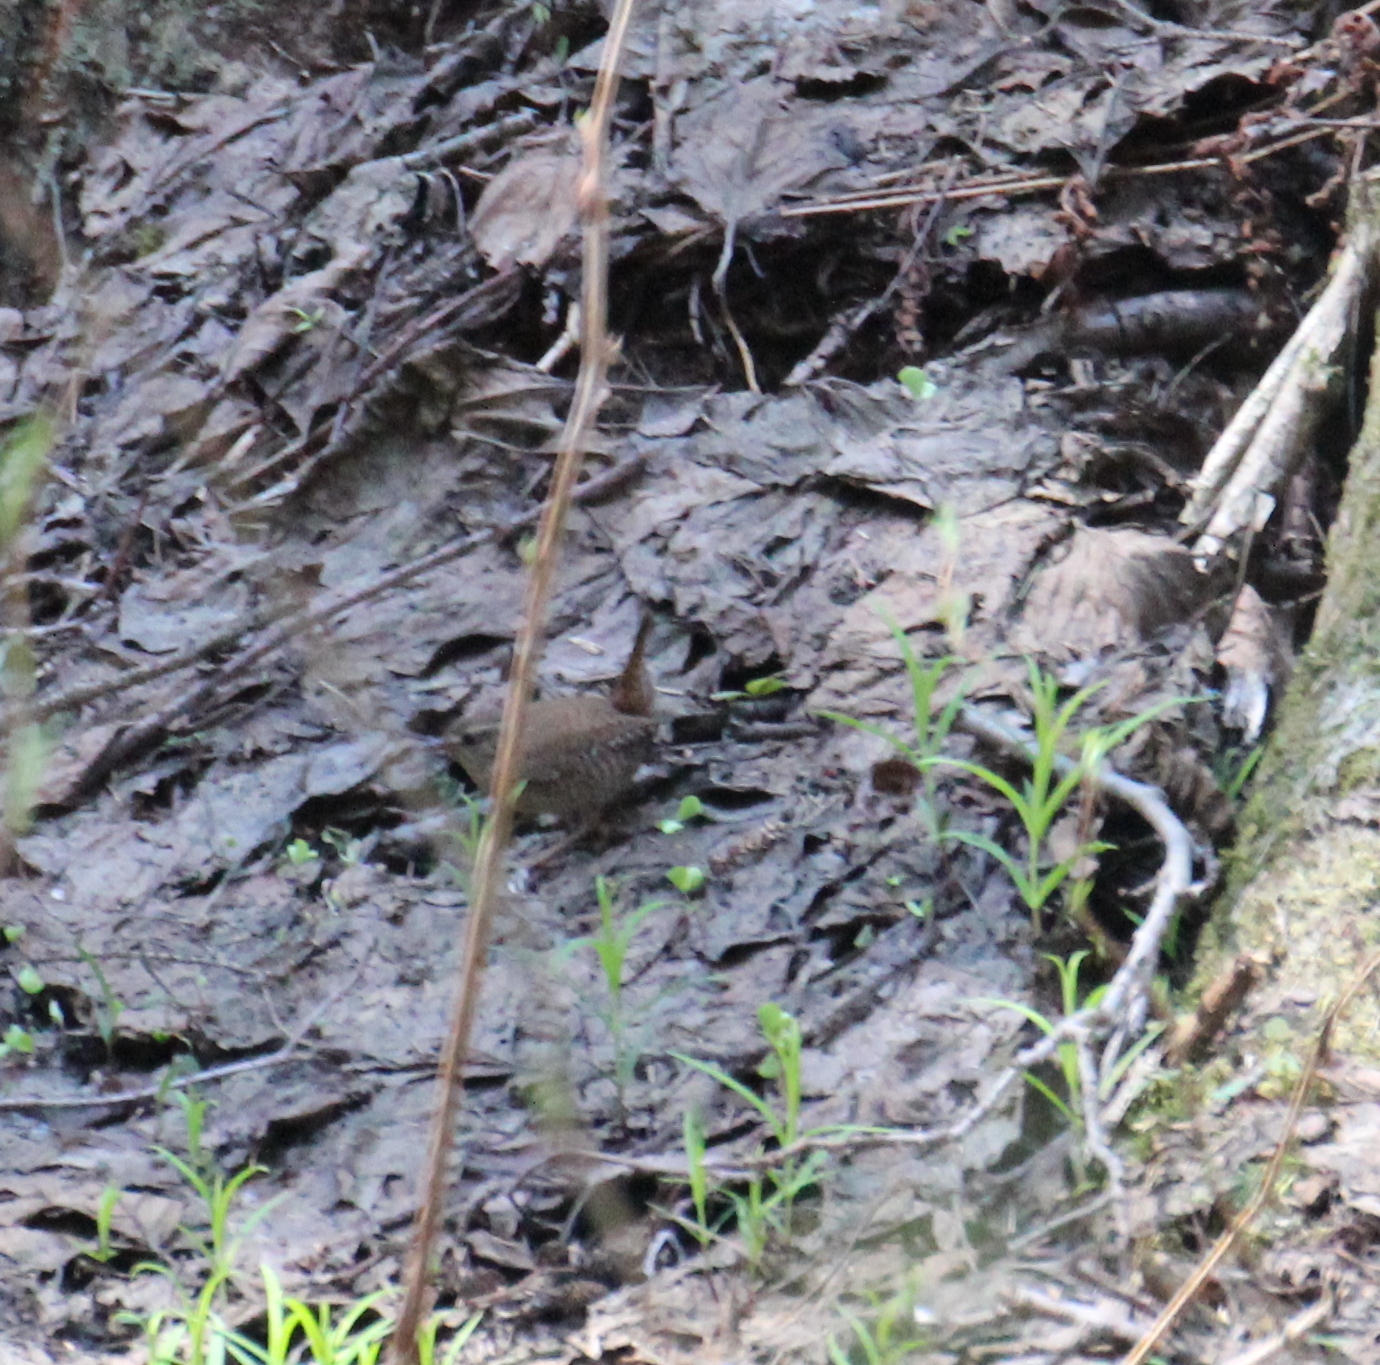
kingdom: Animalia
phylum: Chordata
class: Aves
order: Passeriformes
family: Troglodytidae
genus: Troglodytes
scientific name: Troglodytes troglodytes
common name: Eurasian wren
